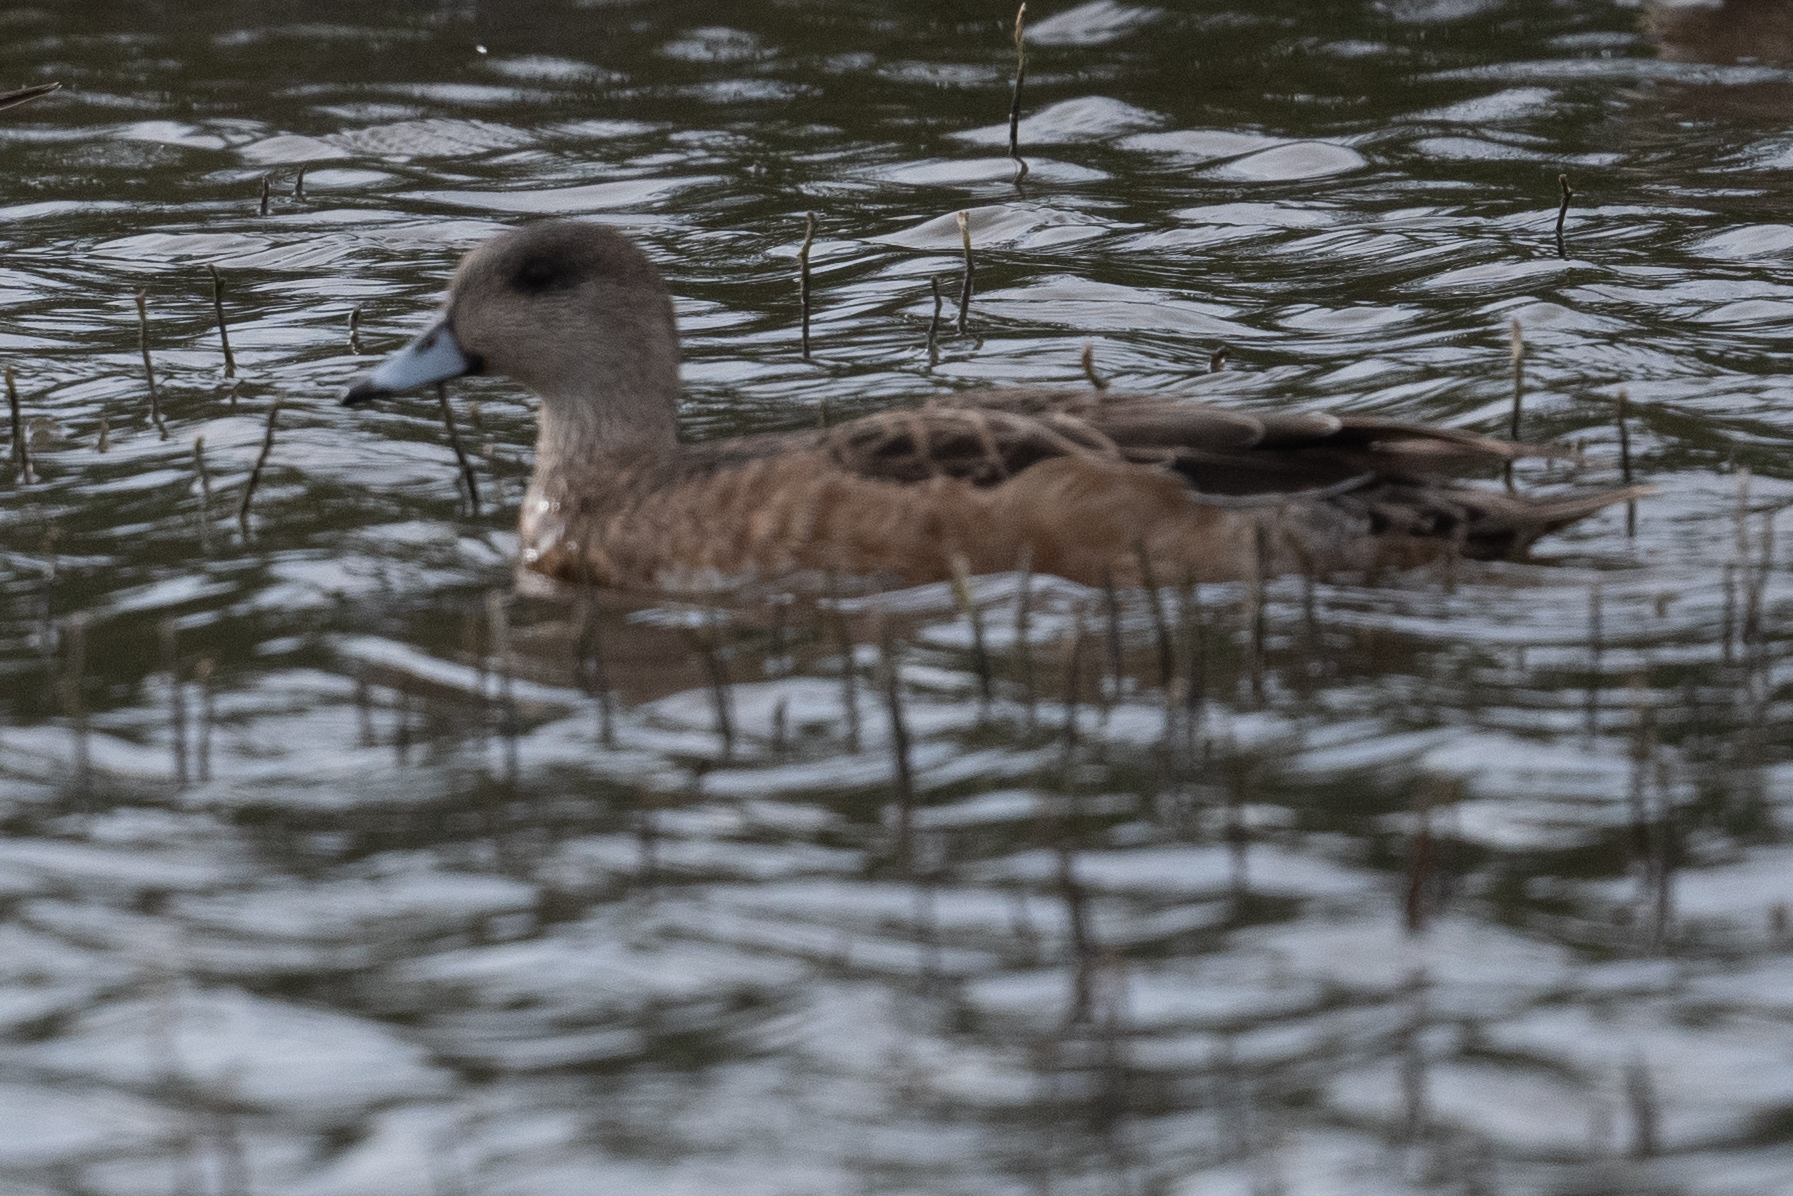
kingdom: Animalia
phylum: Chordata
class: Aves
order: Anseriformes
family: Anatidae
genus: Mareca
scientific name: Mareca americana
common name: American wigeon
